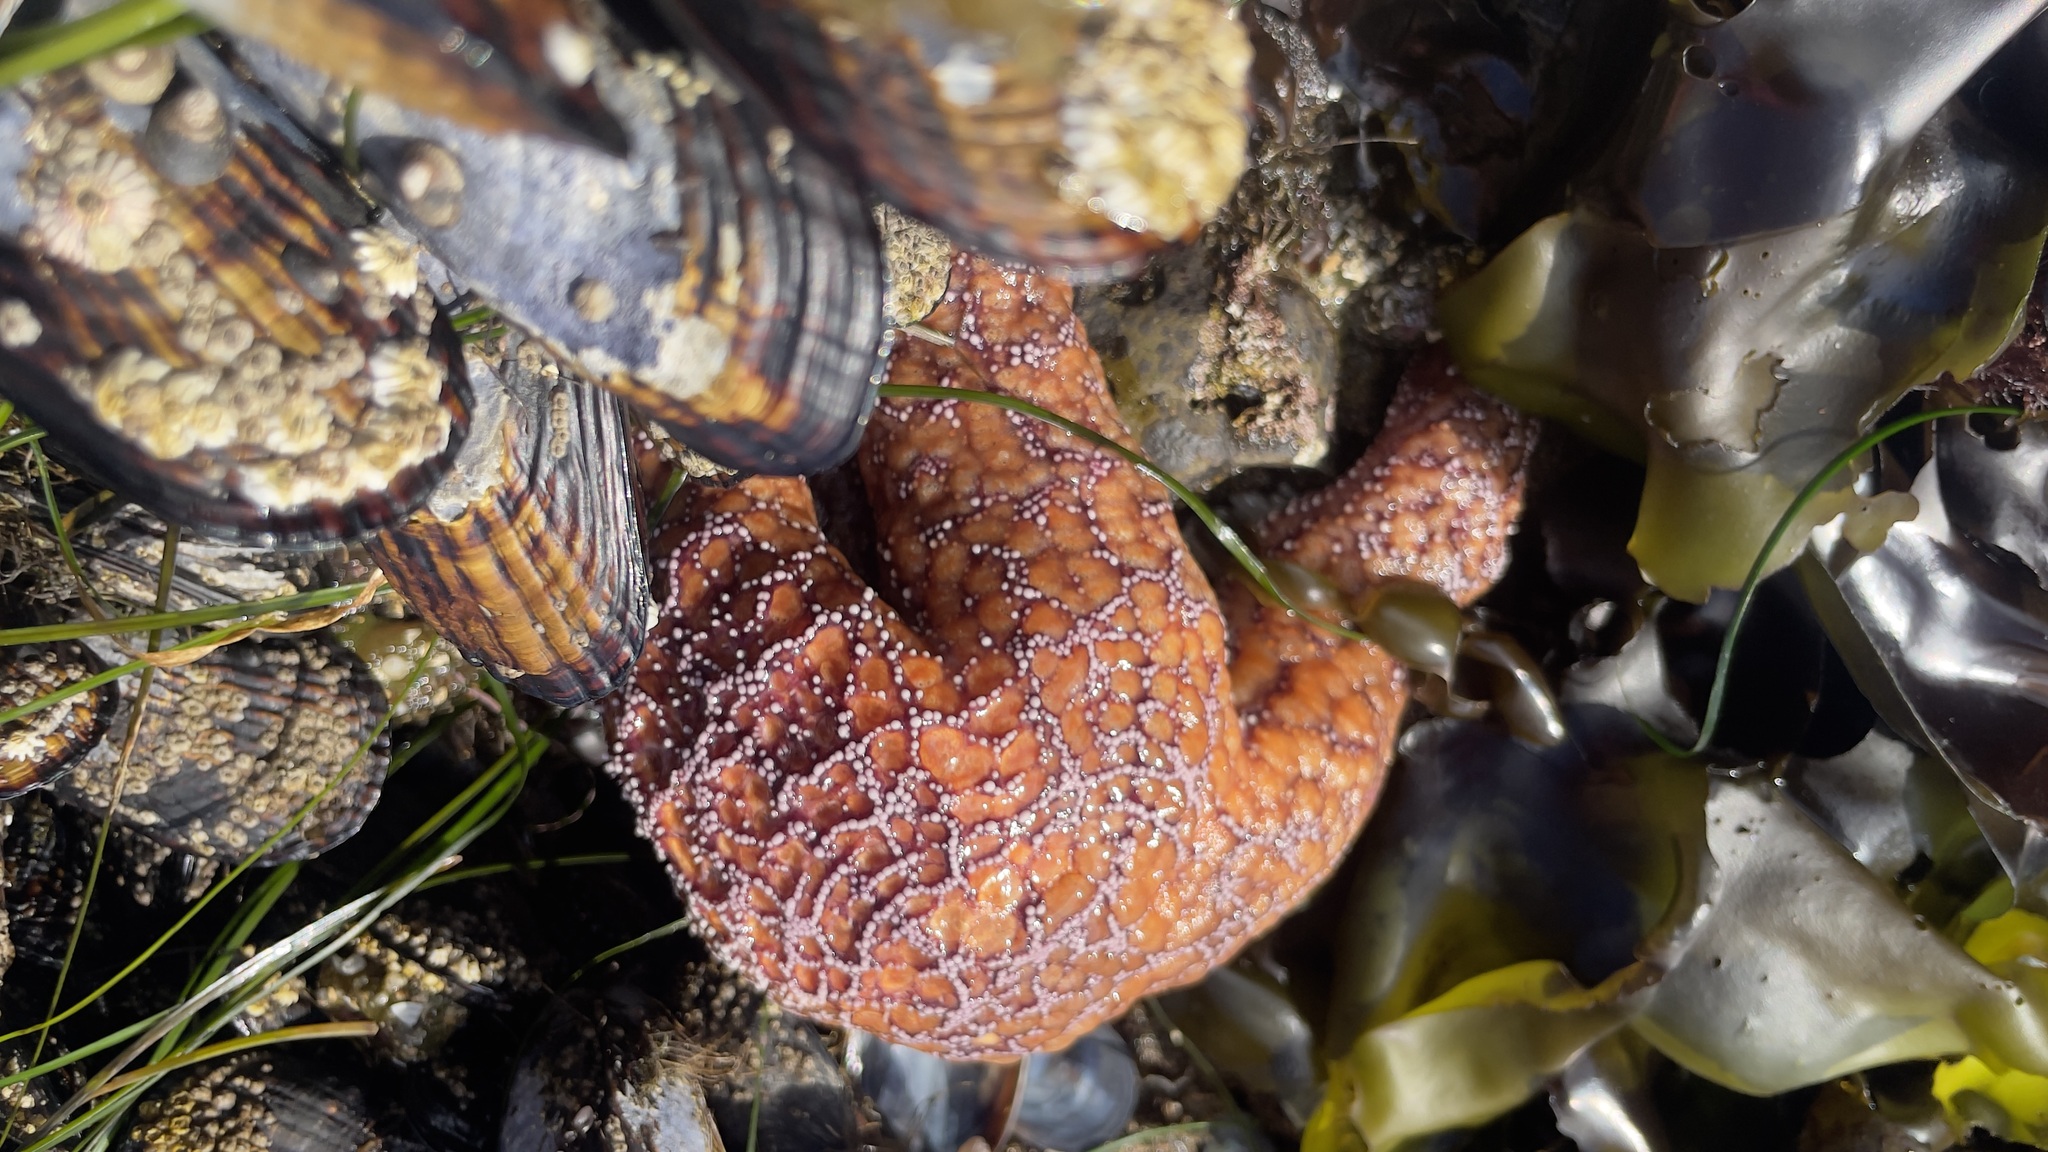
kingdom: Animalia
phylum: Echinodermata
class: Asteroidea
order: Forcipulatida
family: Asteriidae
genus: Pisaster
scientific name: Pisaster ochraceus
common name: Ochre stars
